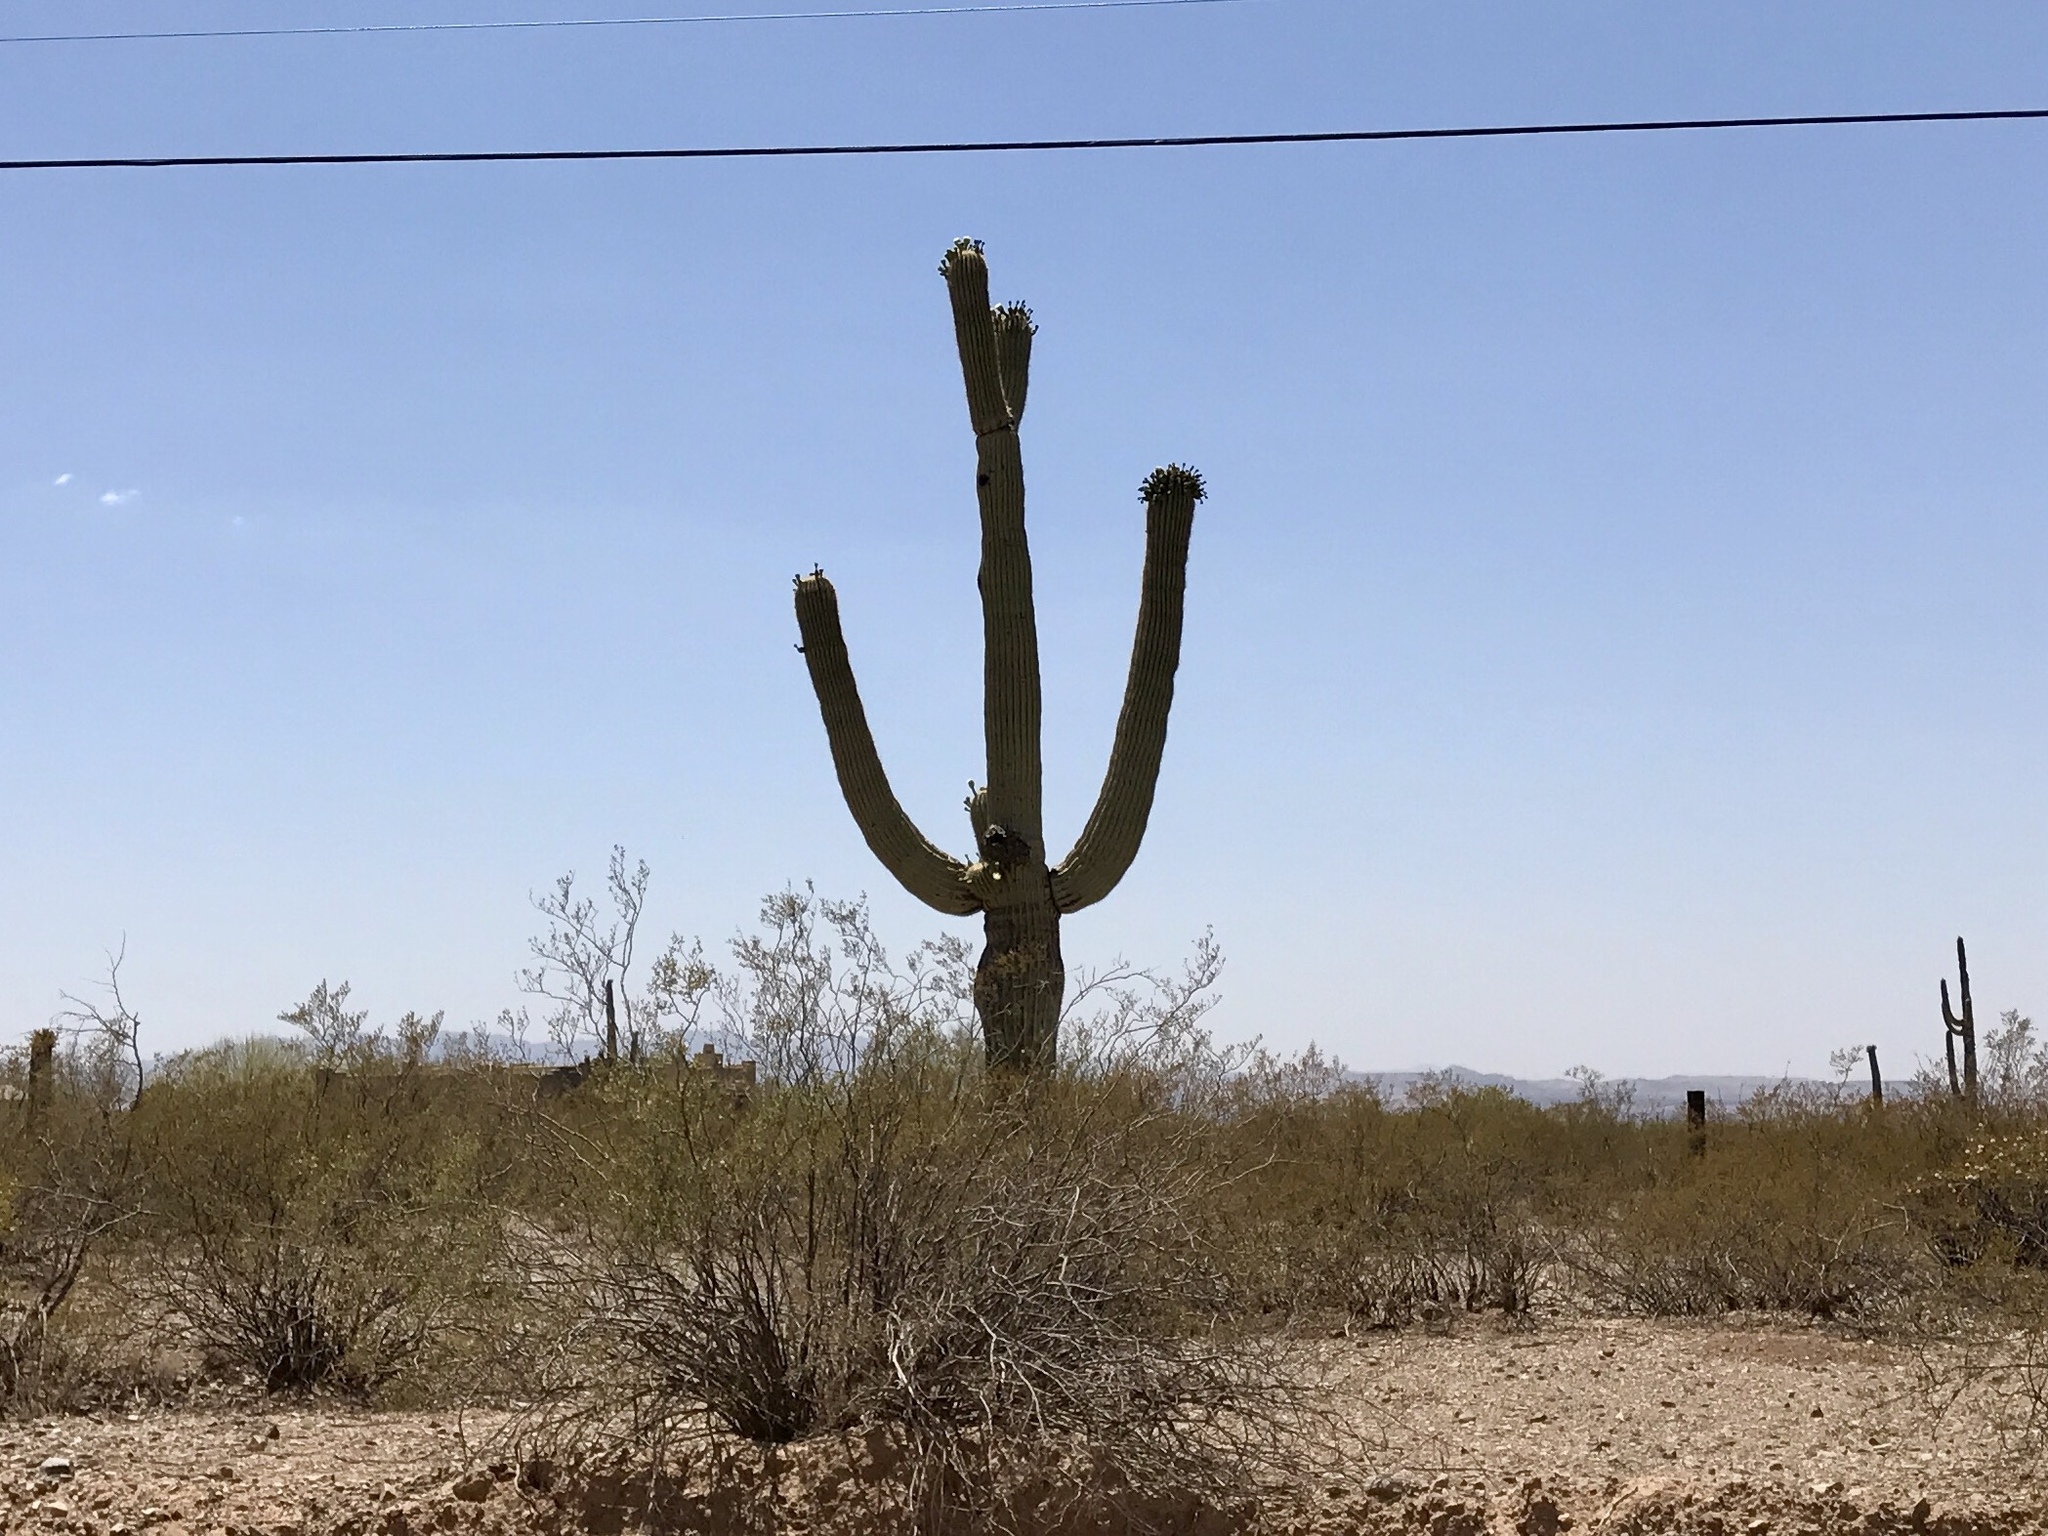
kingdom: Plantae
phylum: Tracheophyta
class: Magnoliopsida
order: Caryophyllales
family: Cactaceae
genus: Carnegiea
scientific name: Carnegiea gigantea
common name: Saguaro
